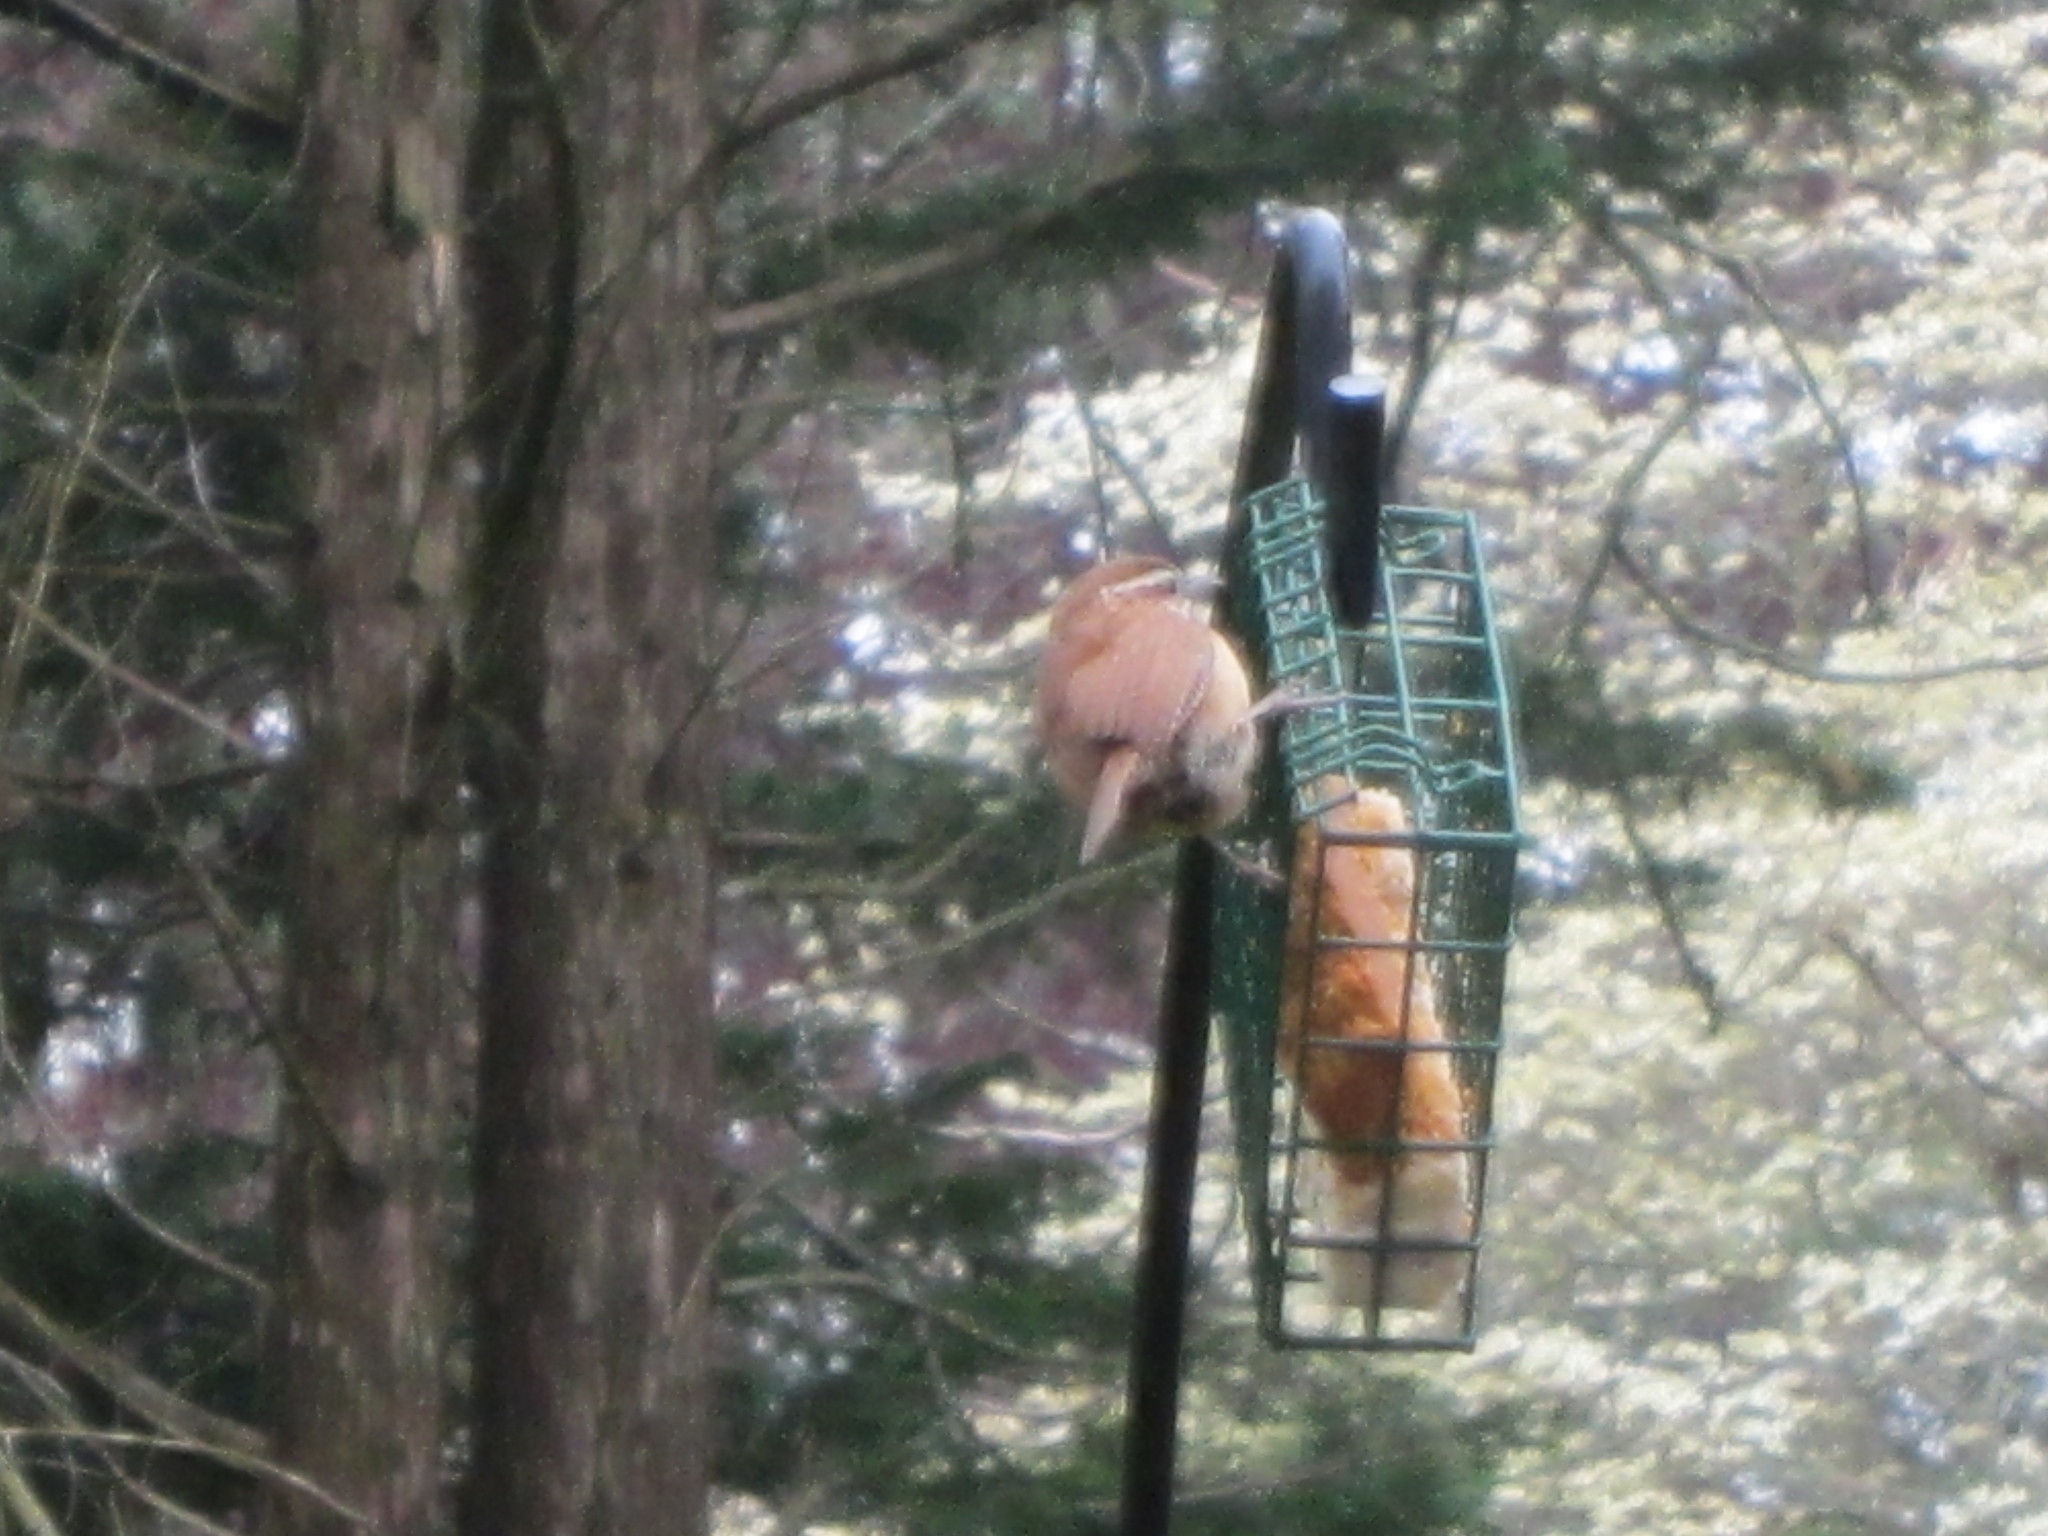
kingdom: Animalia
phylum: Chordata
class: Aves
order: Passeriformes
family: Troglodytidae
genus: Thryothorus
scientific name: Thryothorus ludovicianus
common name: Carolina wren
